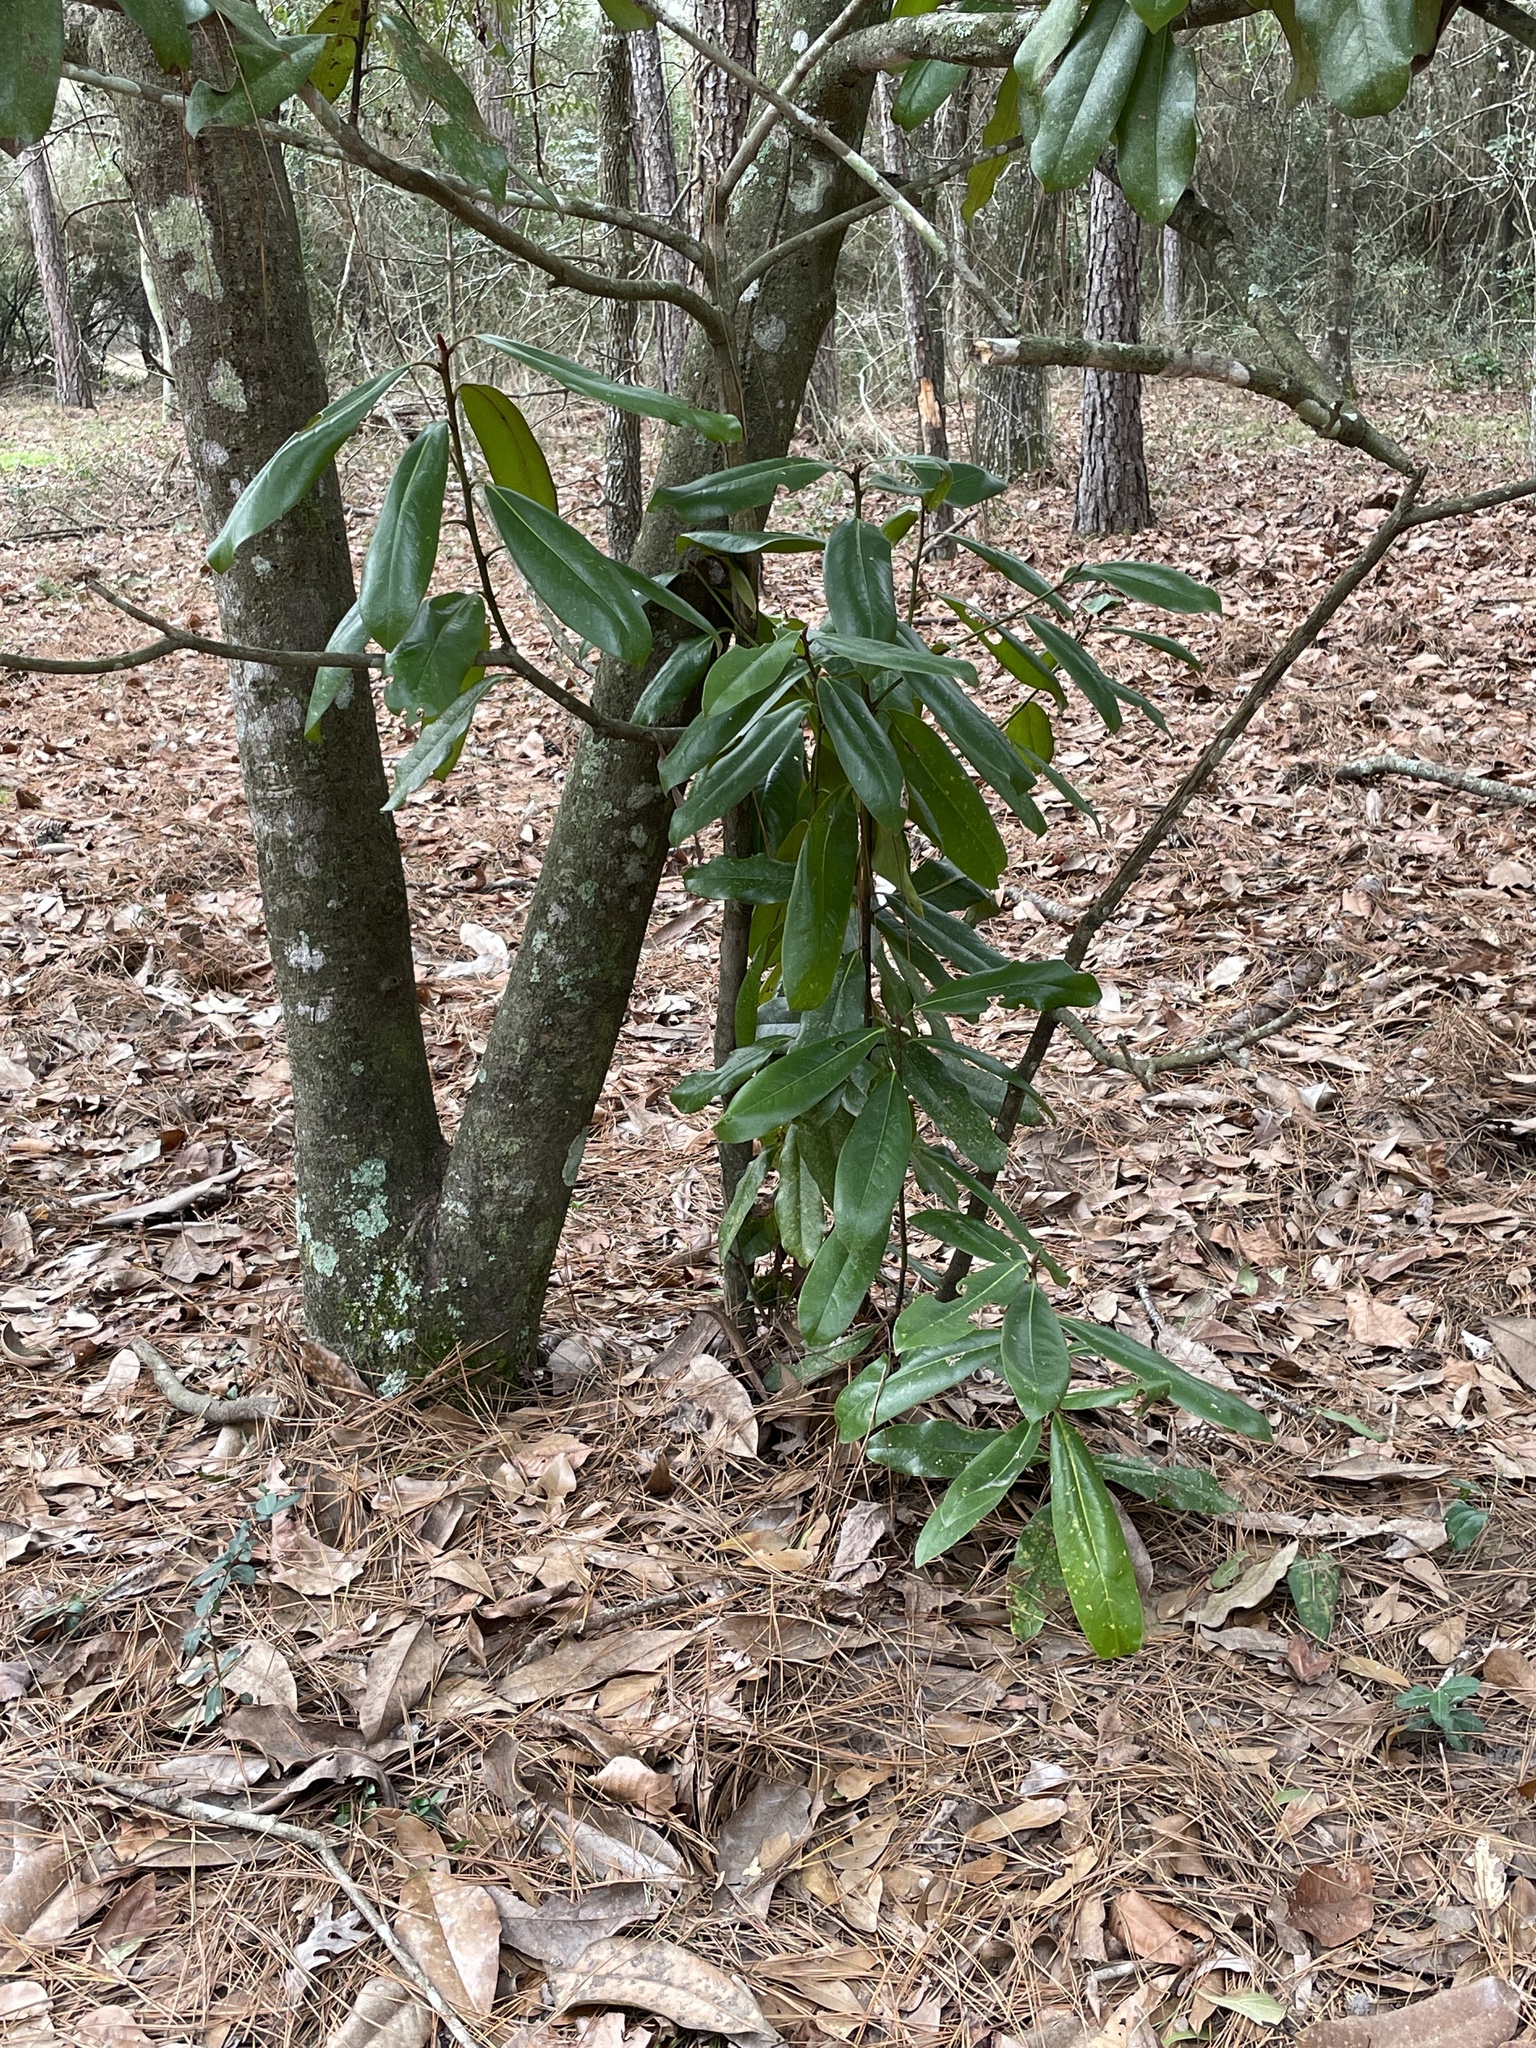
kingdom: Plantae
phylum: Tracheophyta
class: Magnoliopsida
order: Magnoliales
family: Magnoliaceae
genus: Magnolia
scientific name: Magnolia grandiflora
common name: Southern magnolia
